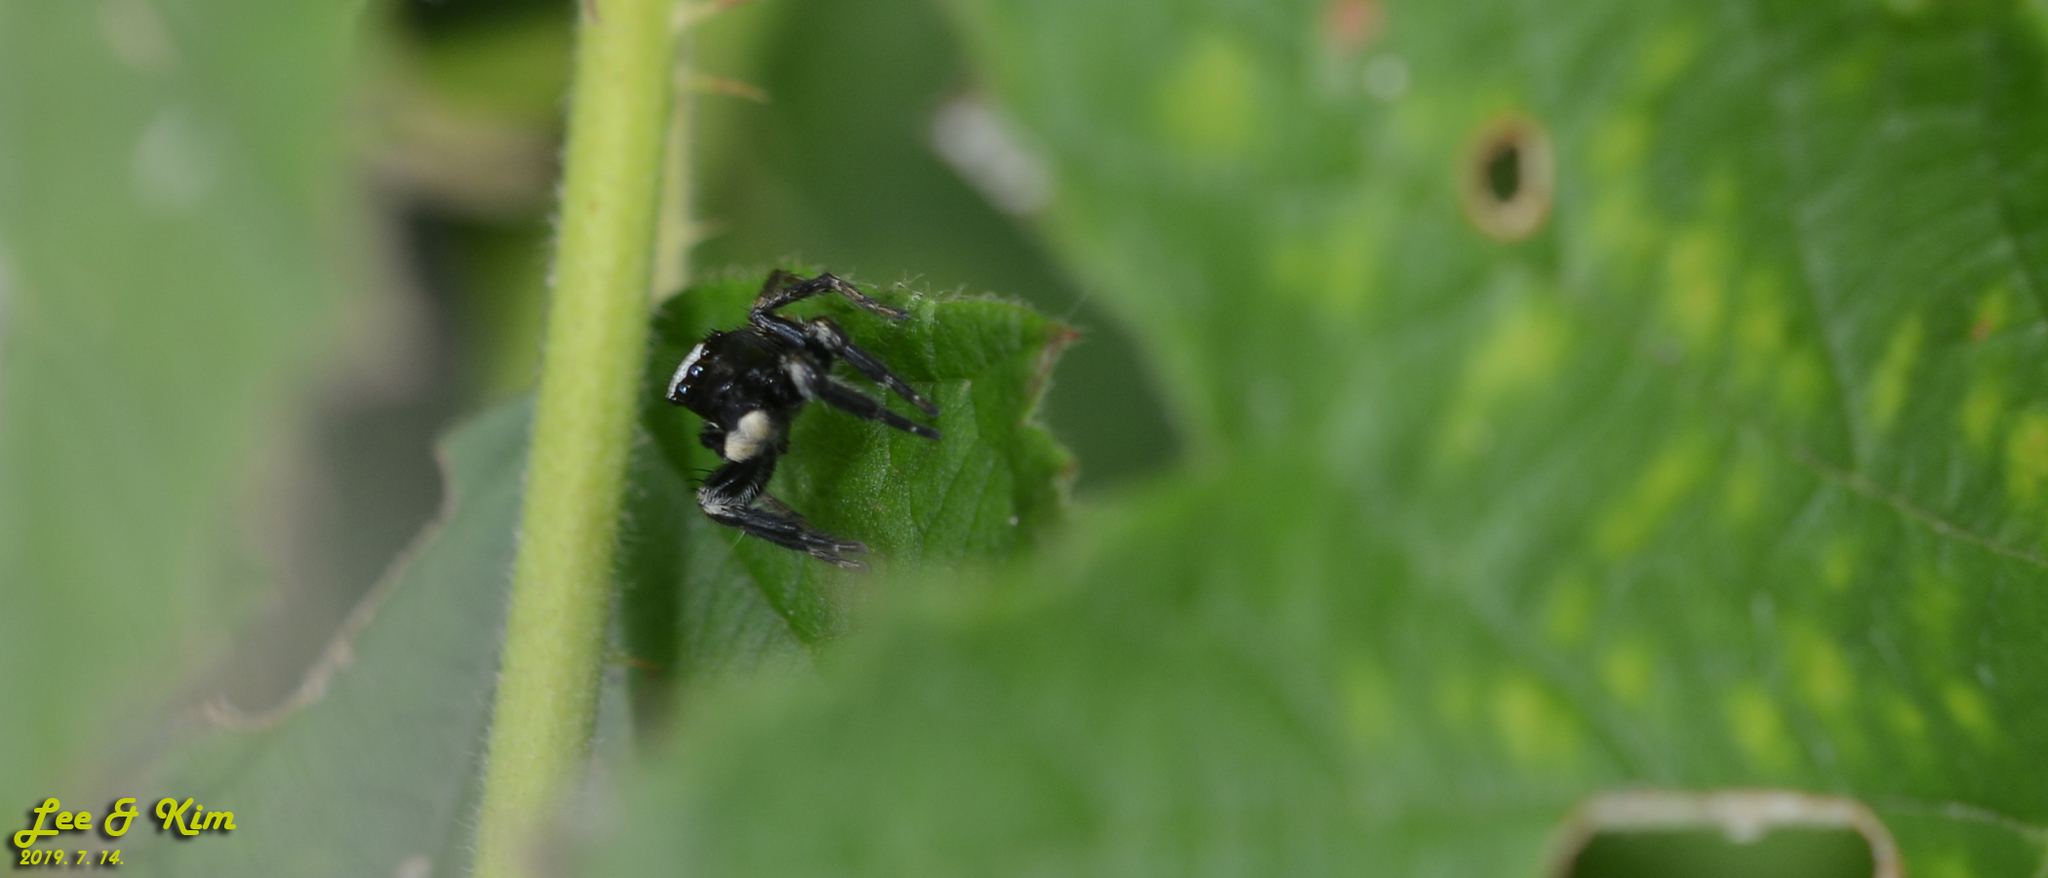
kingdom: Animalia
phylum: Arthropoda
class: Arachnida
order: Araneae
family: Salticidae
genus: Evarcha
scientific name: Evarcha albaria
